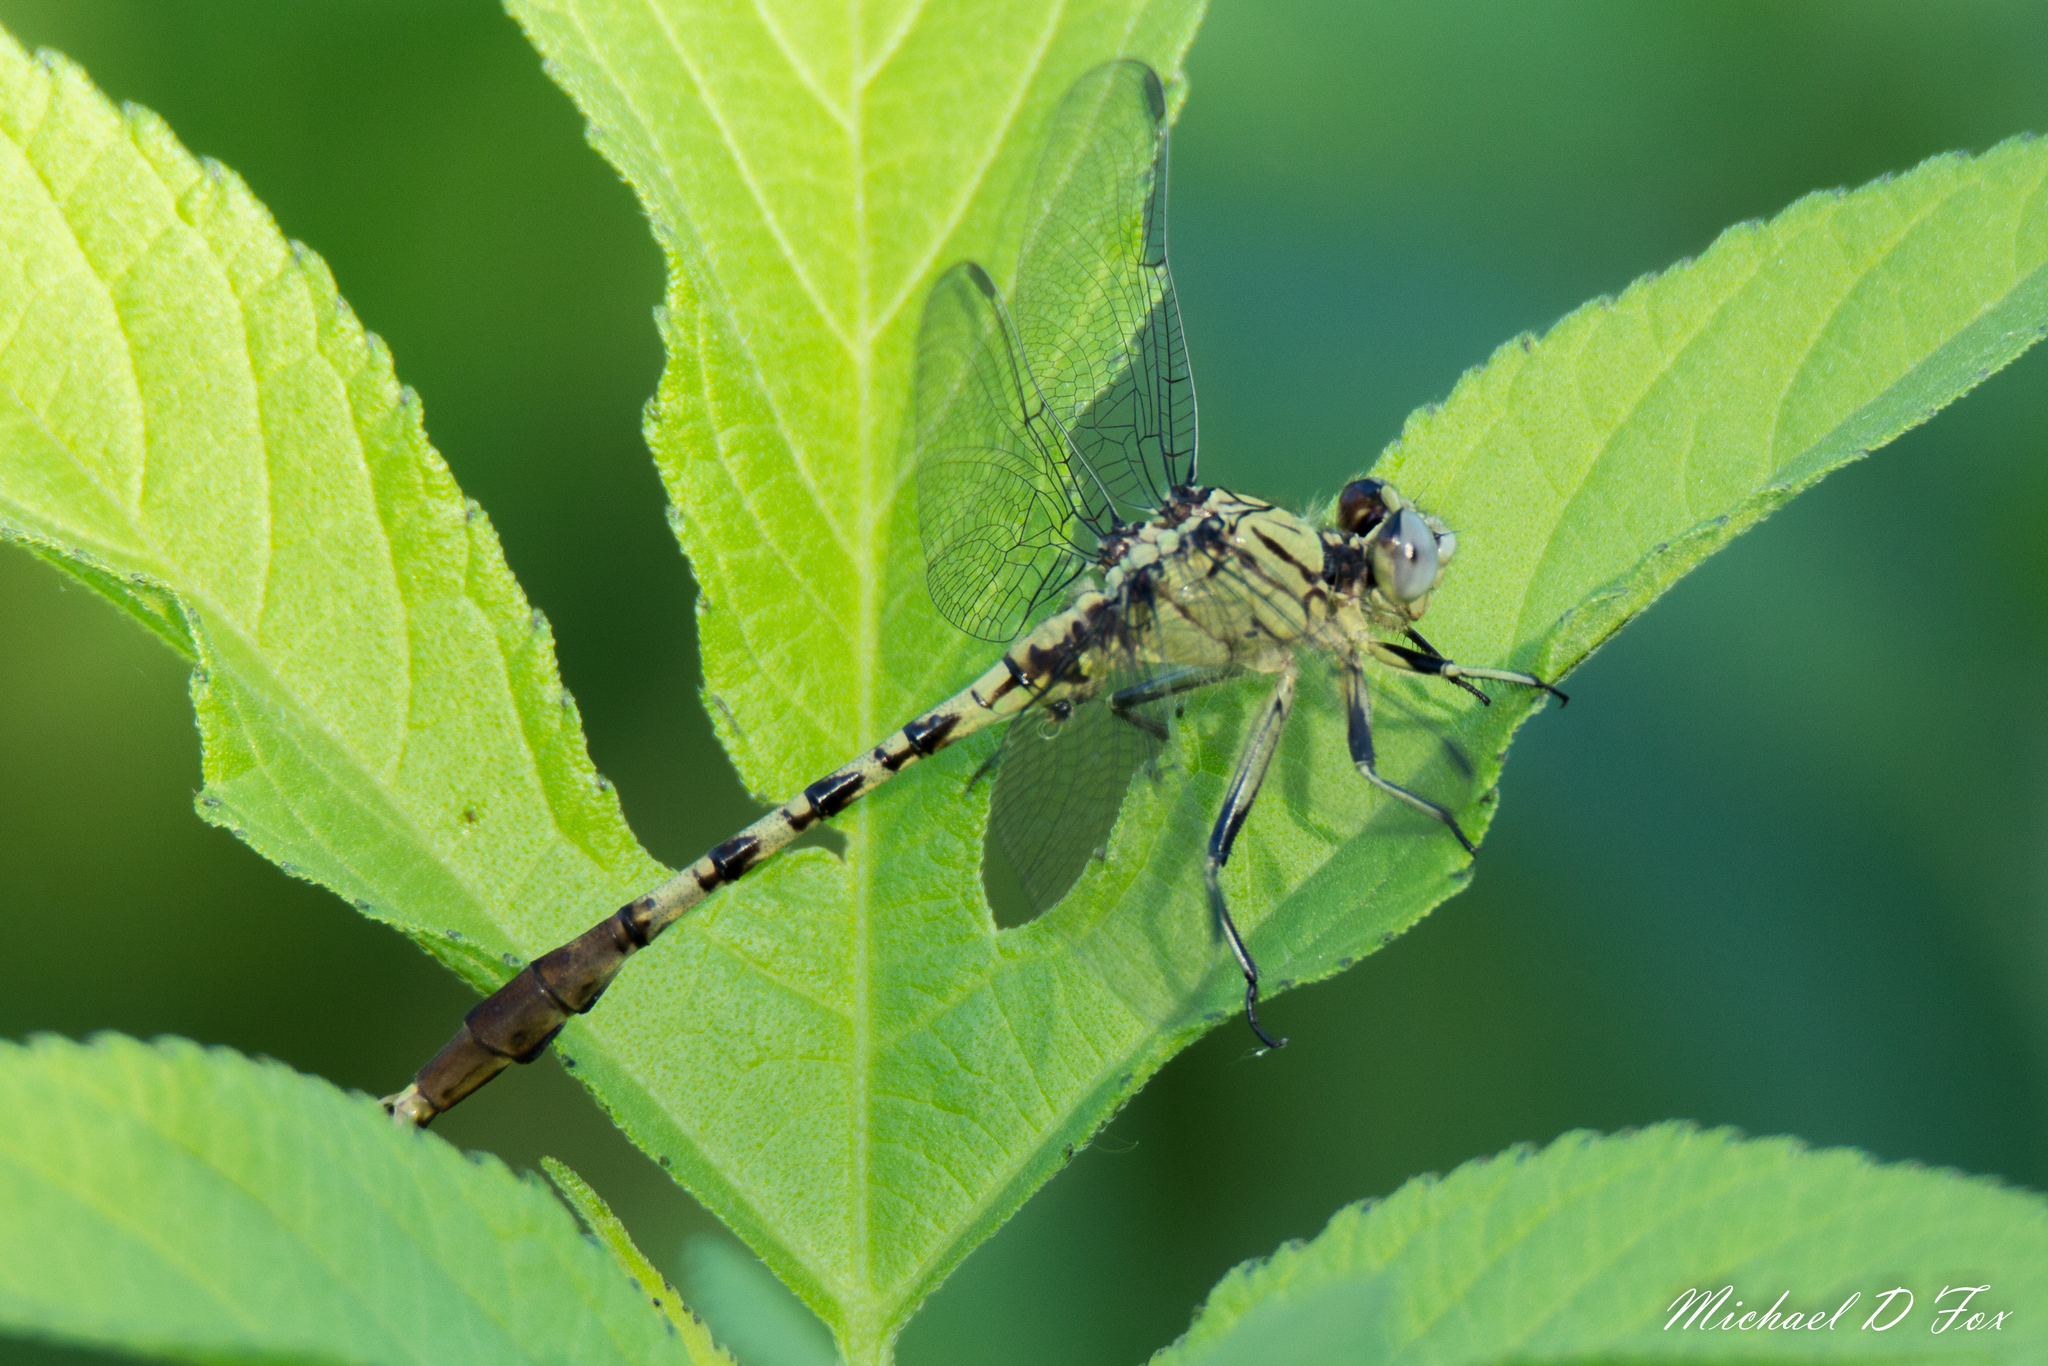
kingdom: Animalia
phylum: Arthropoda
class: Insecta
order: Odonata
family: Gomphidae
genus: Arigomphus
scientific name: Arigomphus submedianus
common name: Jade clubtail
